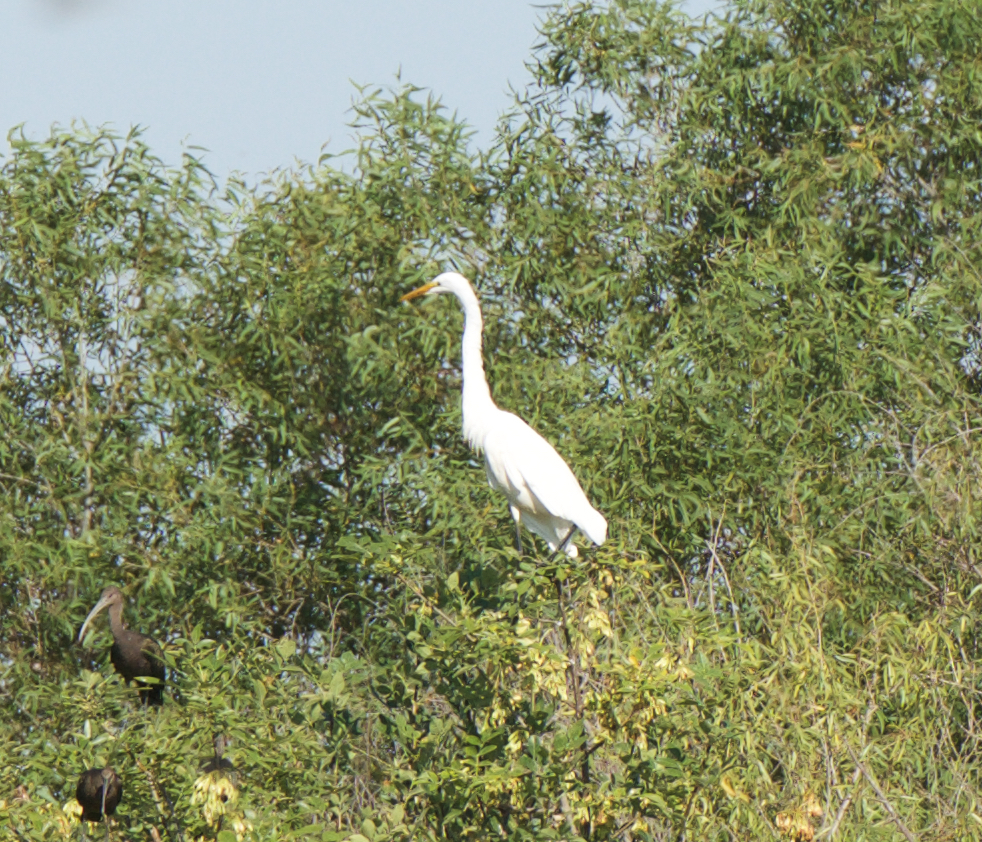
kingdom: Animalia
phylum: Chordata
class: Aves
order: Pelecaniformes
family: Ardeidae
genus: Ardea
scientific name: Ardea alba
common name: Great egret
